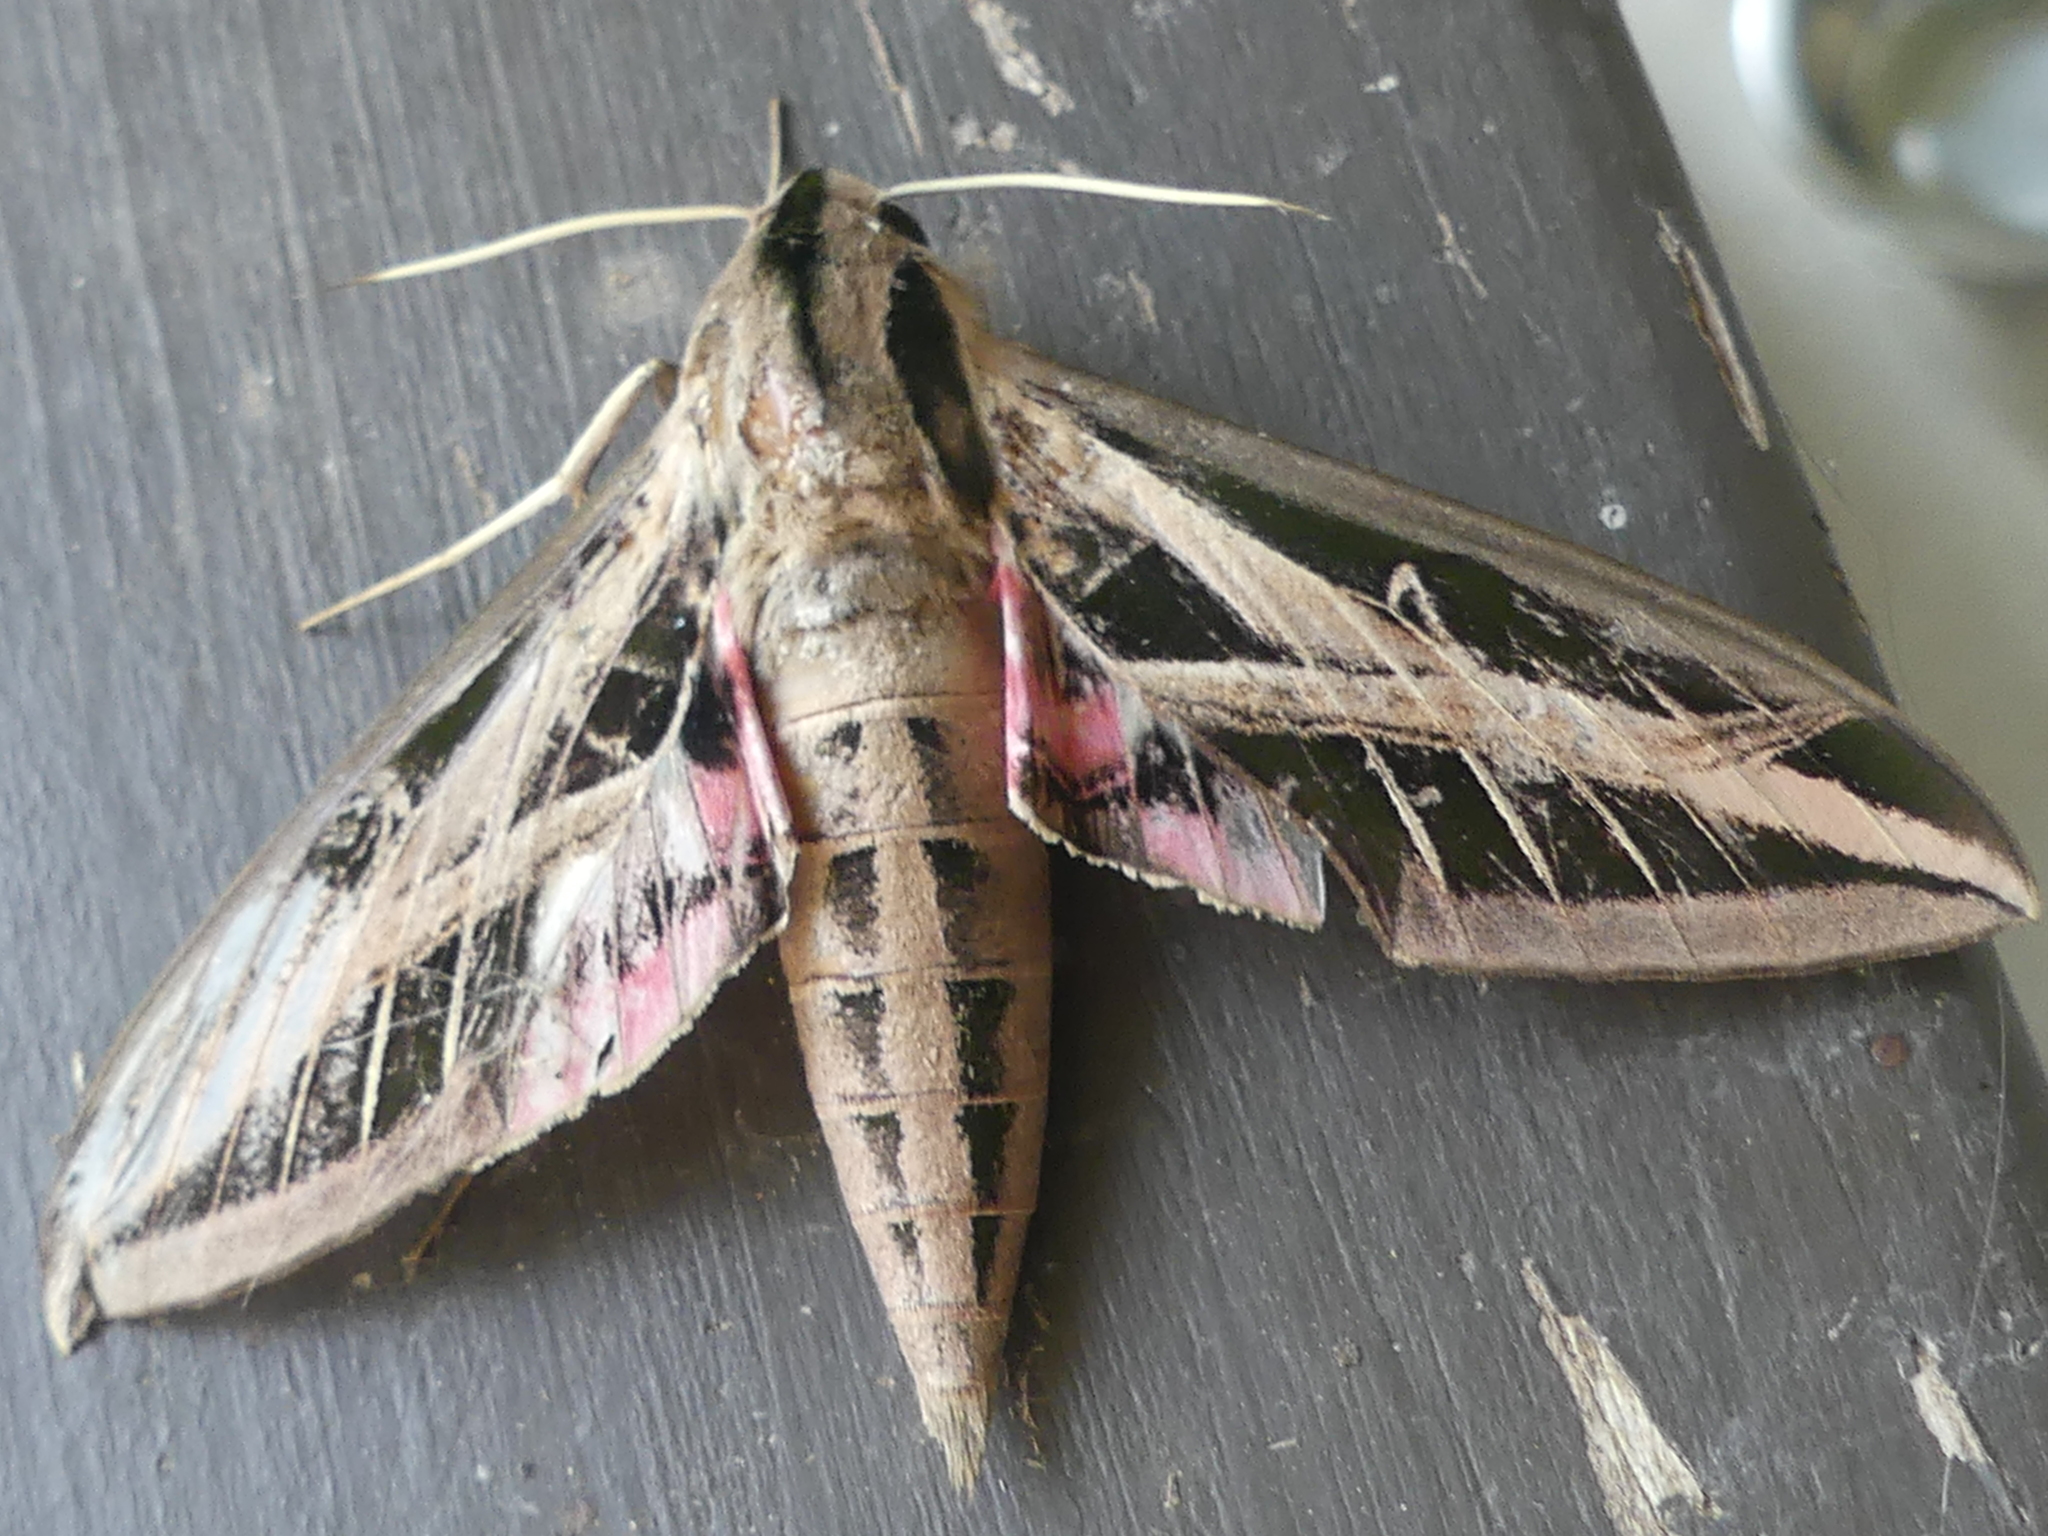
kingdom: Animalia
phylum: Arthropoda
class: Insecta
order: Lepidoptera
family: Sphingidae
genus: Eumorpha
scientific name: Eumorpha fasciatus
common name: Banded sphinx
